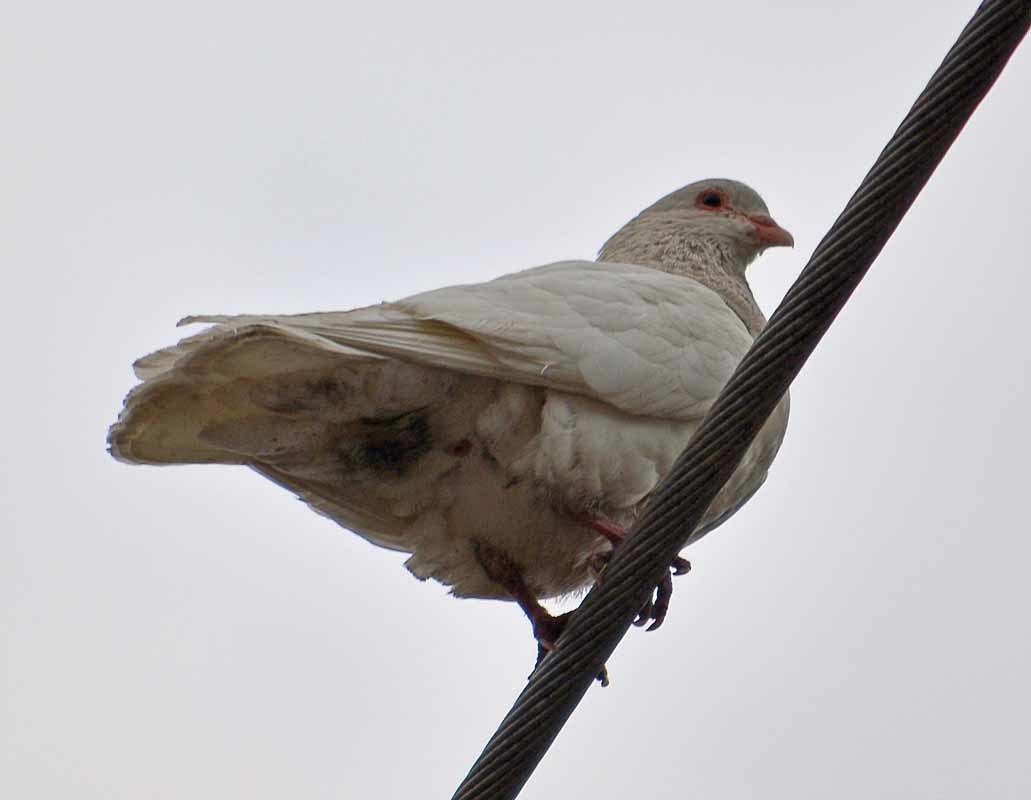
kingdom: Animalia
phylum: Chordata
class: Aves
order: Columbiformes
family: Columbidae
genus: Columba
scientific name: Columba livia
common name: Rock pigeon
